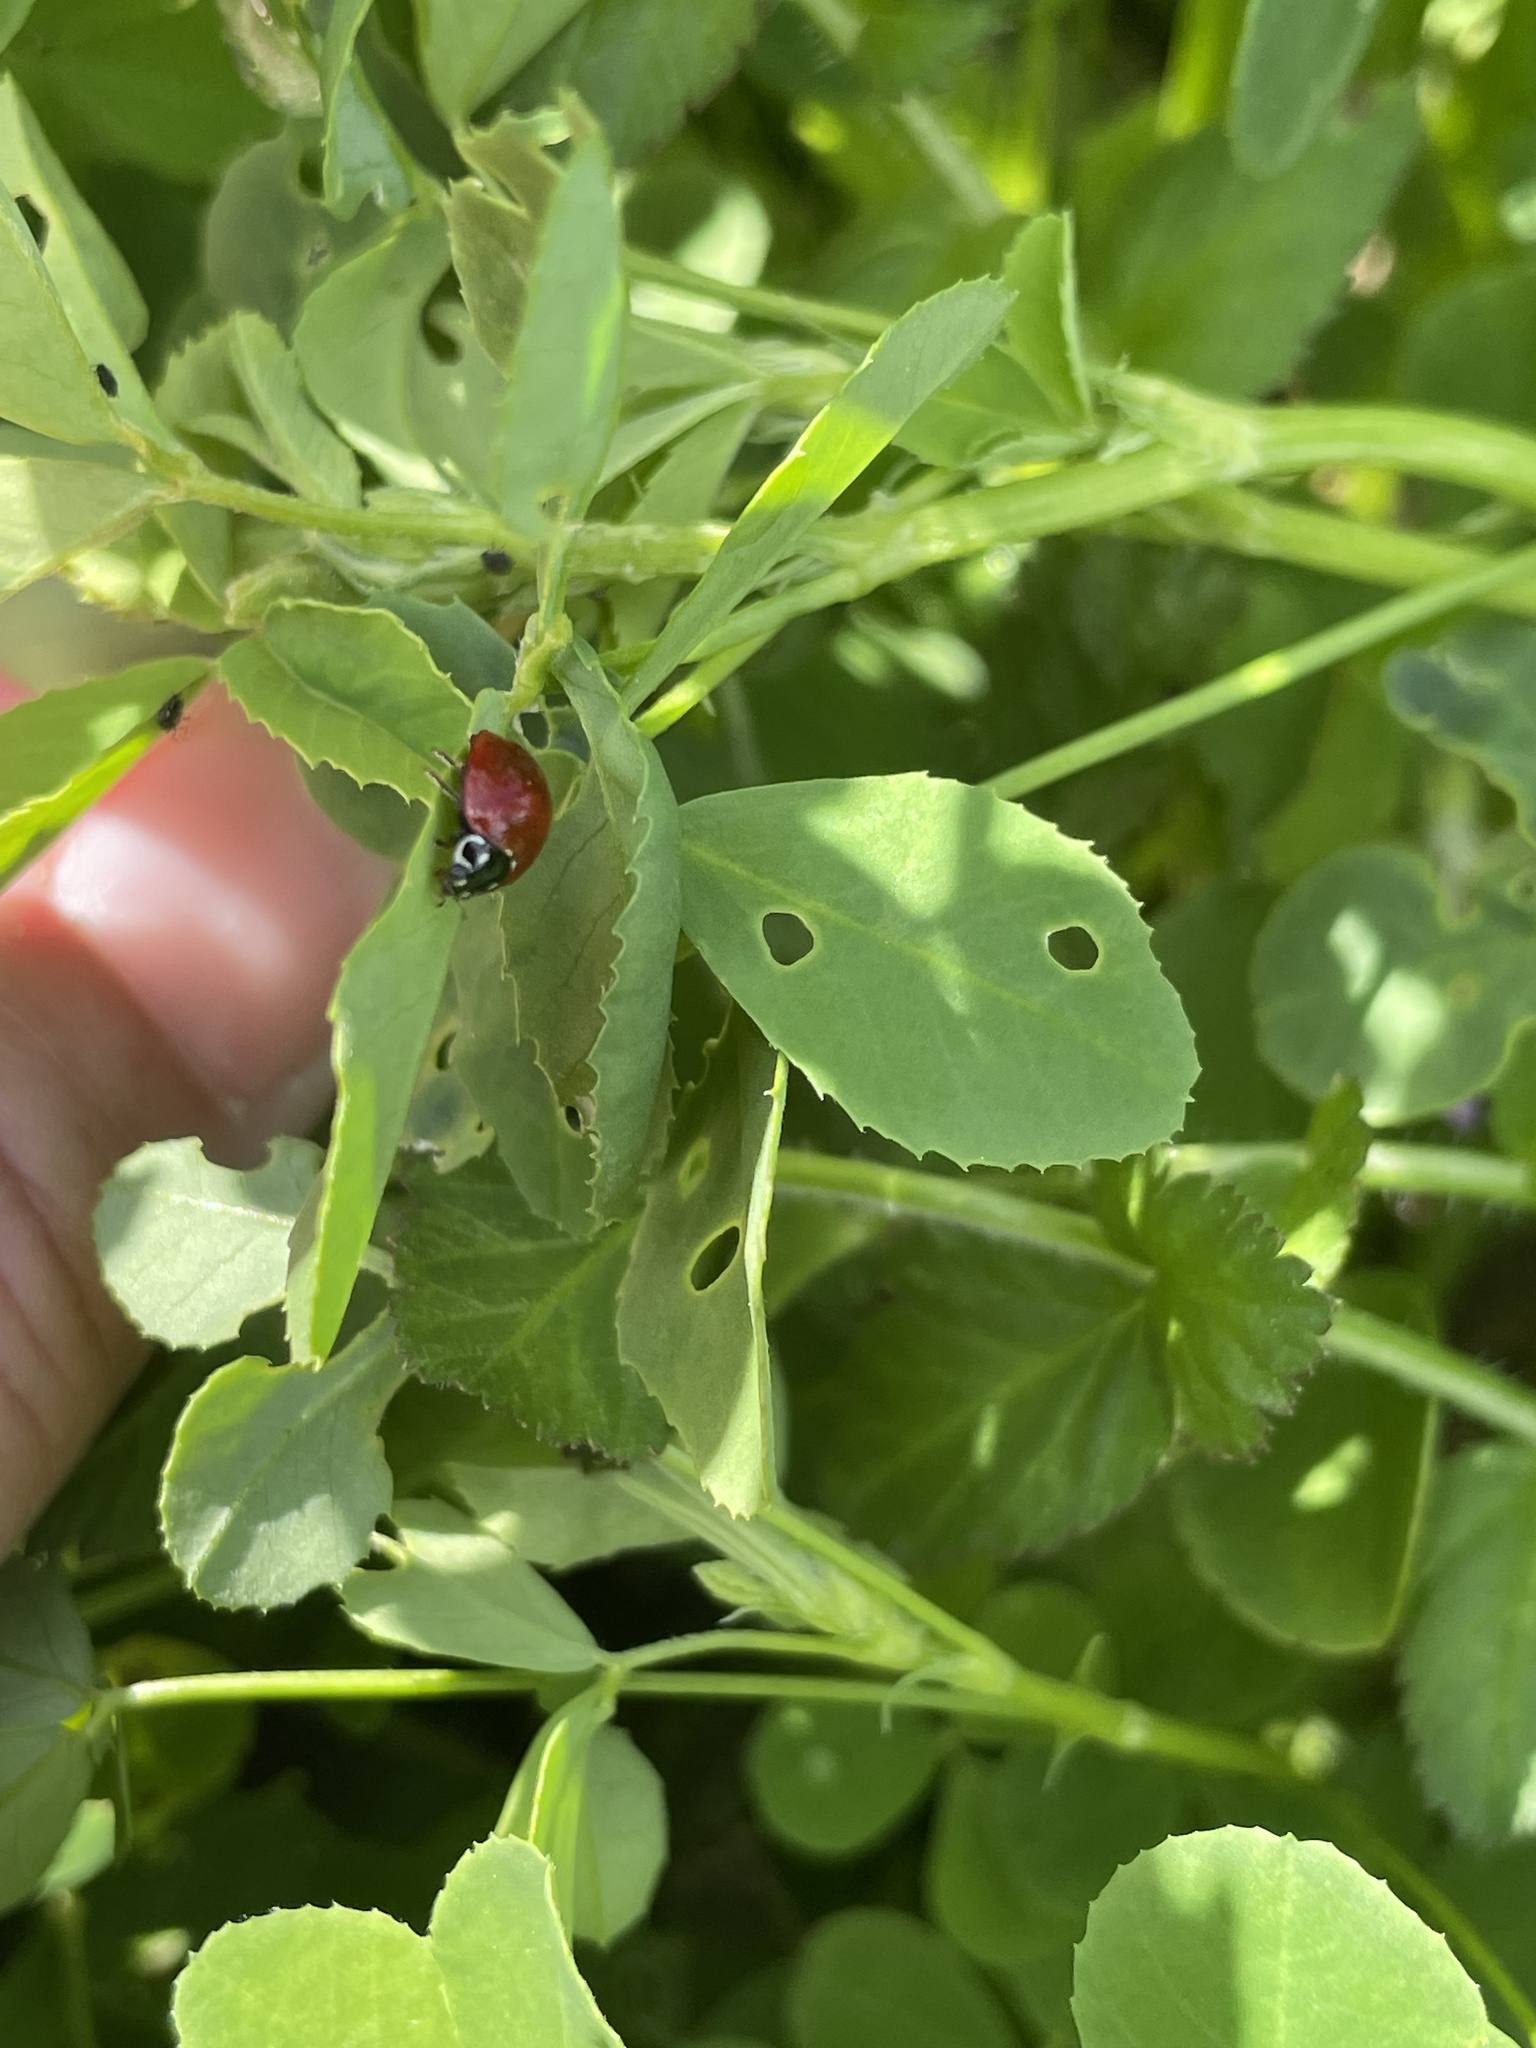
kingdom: Animalia
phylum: Arthropoda
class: Insecta
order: Coleoptera
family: Coccinellidae
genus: Cycloneda
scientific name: Cycloneda sanguinea
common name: Ladybird beetle
